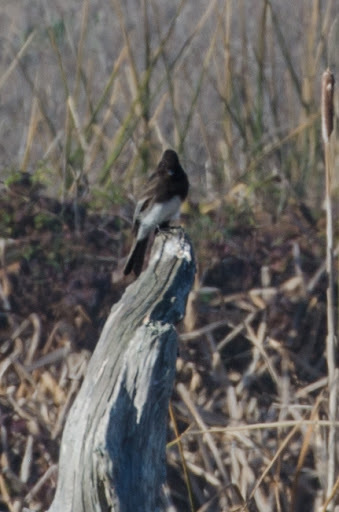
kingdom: Animalia
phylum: Chordata
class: Aves
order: Passeriformes
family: Tyrannidae
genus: Sayornis
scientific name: Sayornis nigricans
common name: Black phoebe
